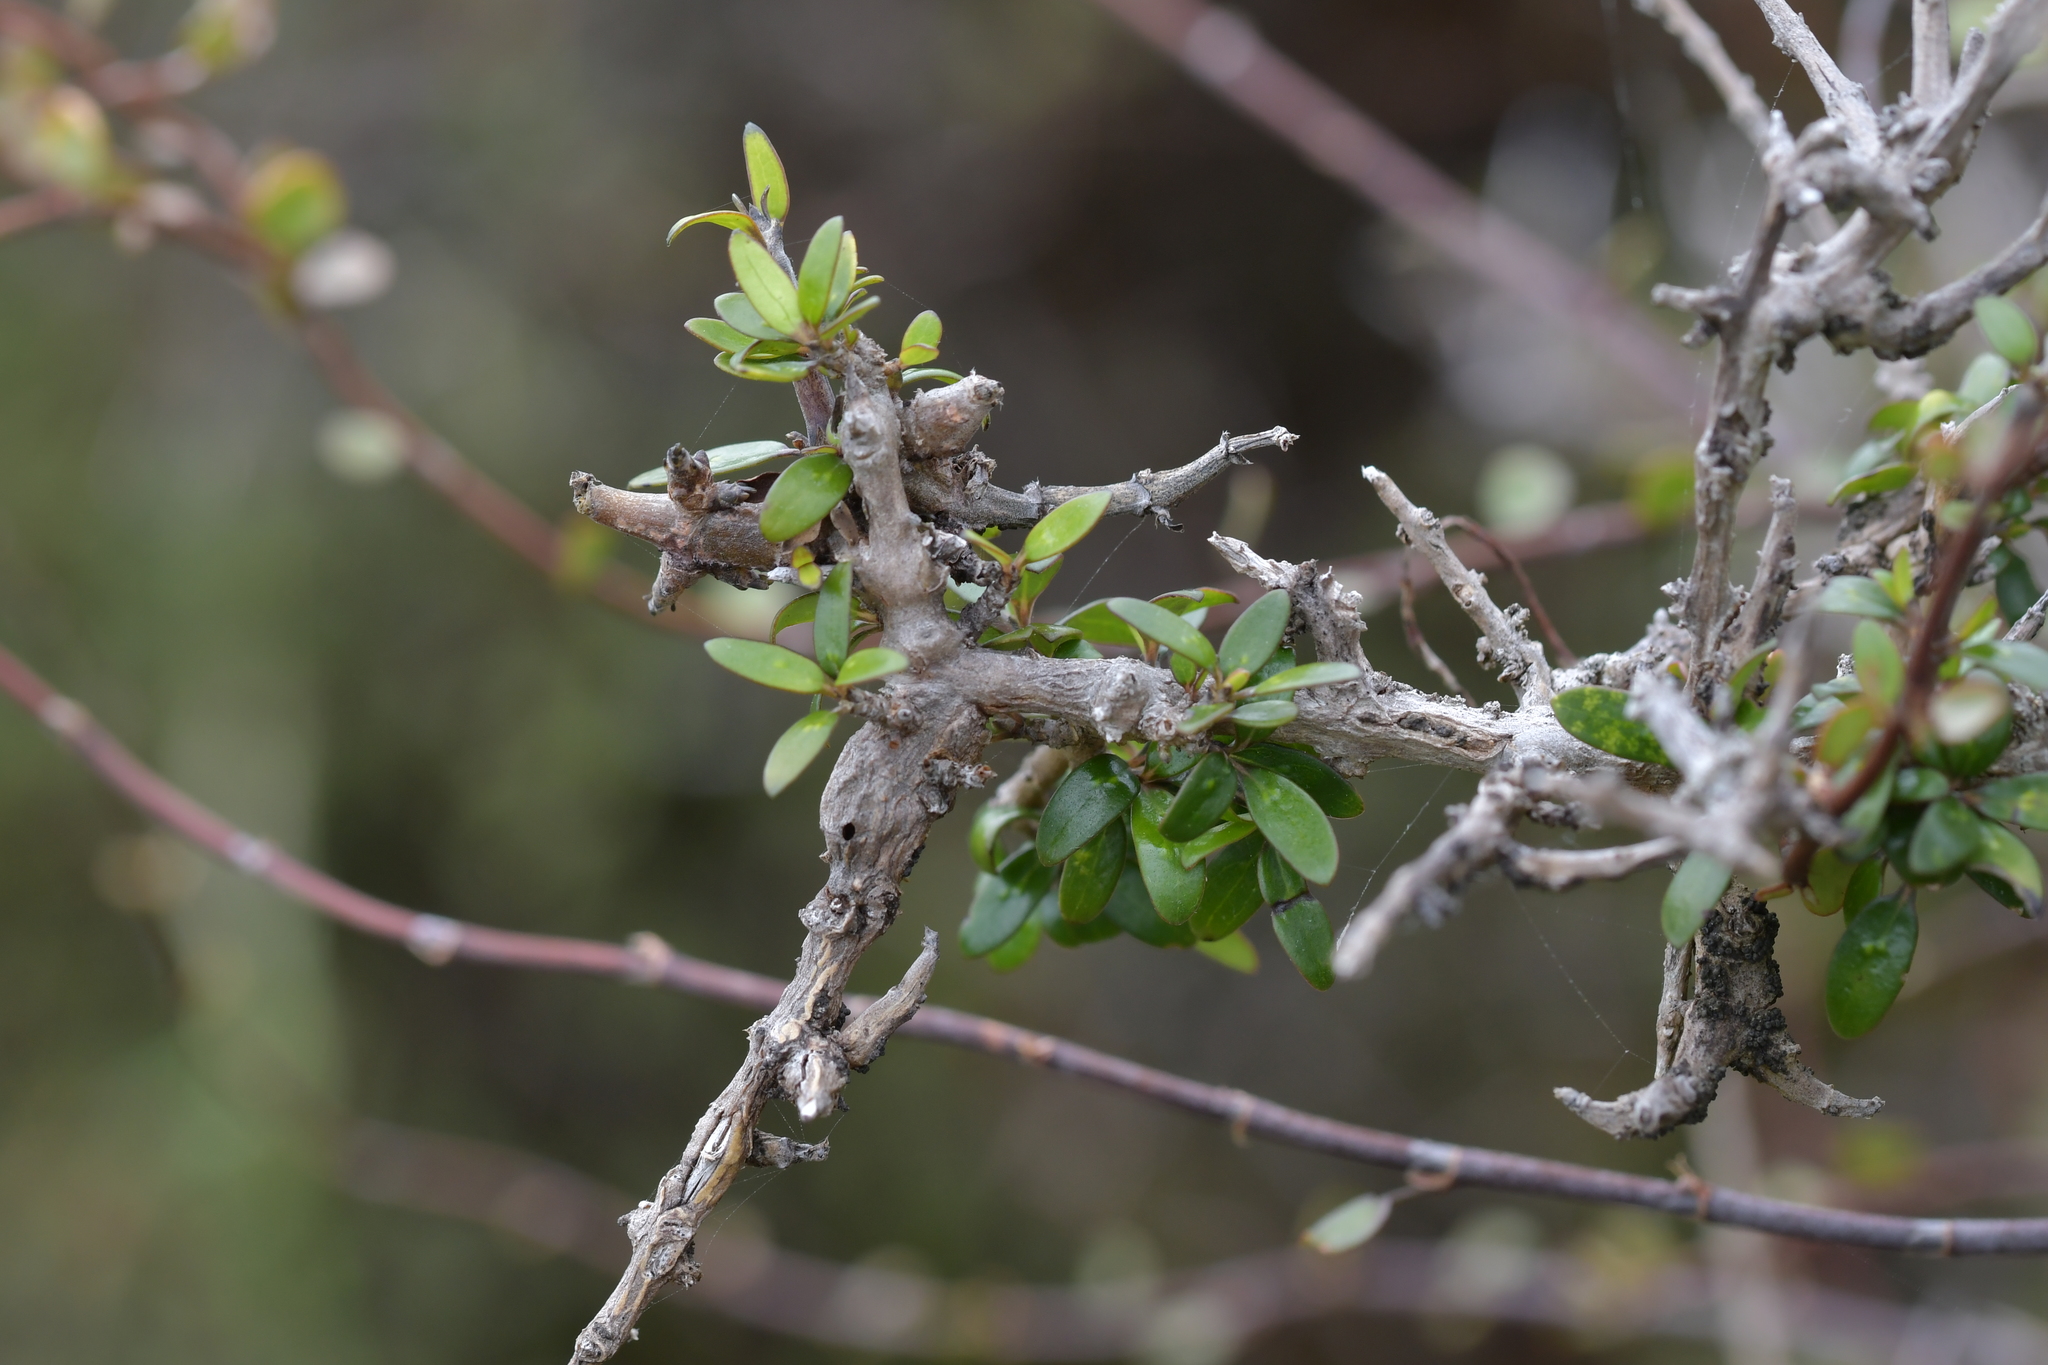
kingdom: Plantae
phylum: Tracheophyta
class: Magnoliopsida
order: Gentianales
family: Rubiaceae
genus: Coprosma
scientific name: Coprosma propinqua
